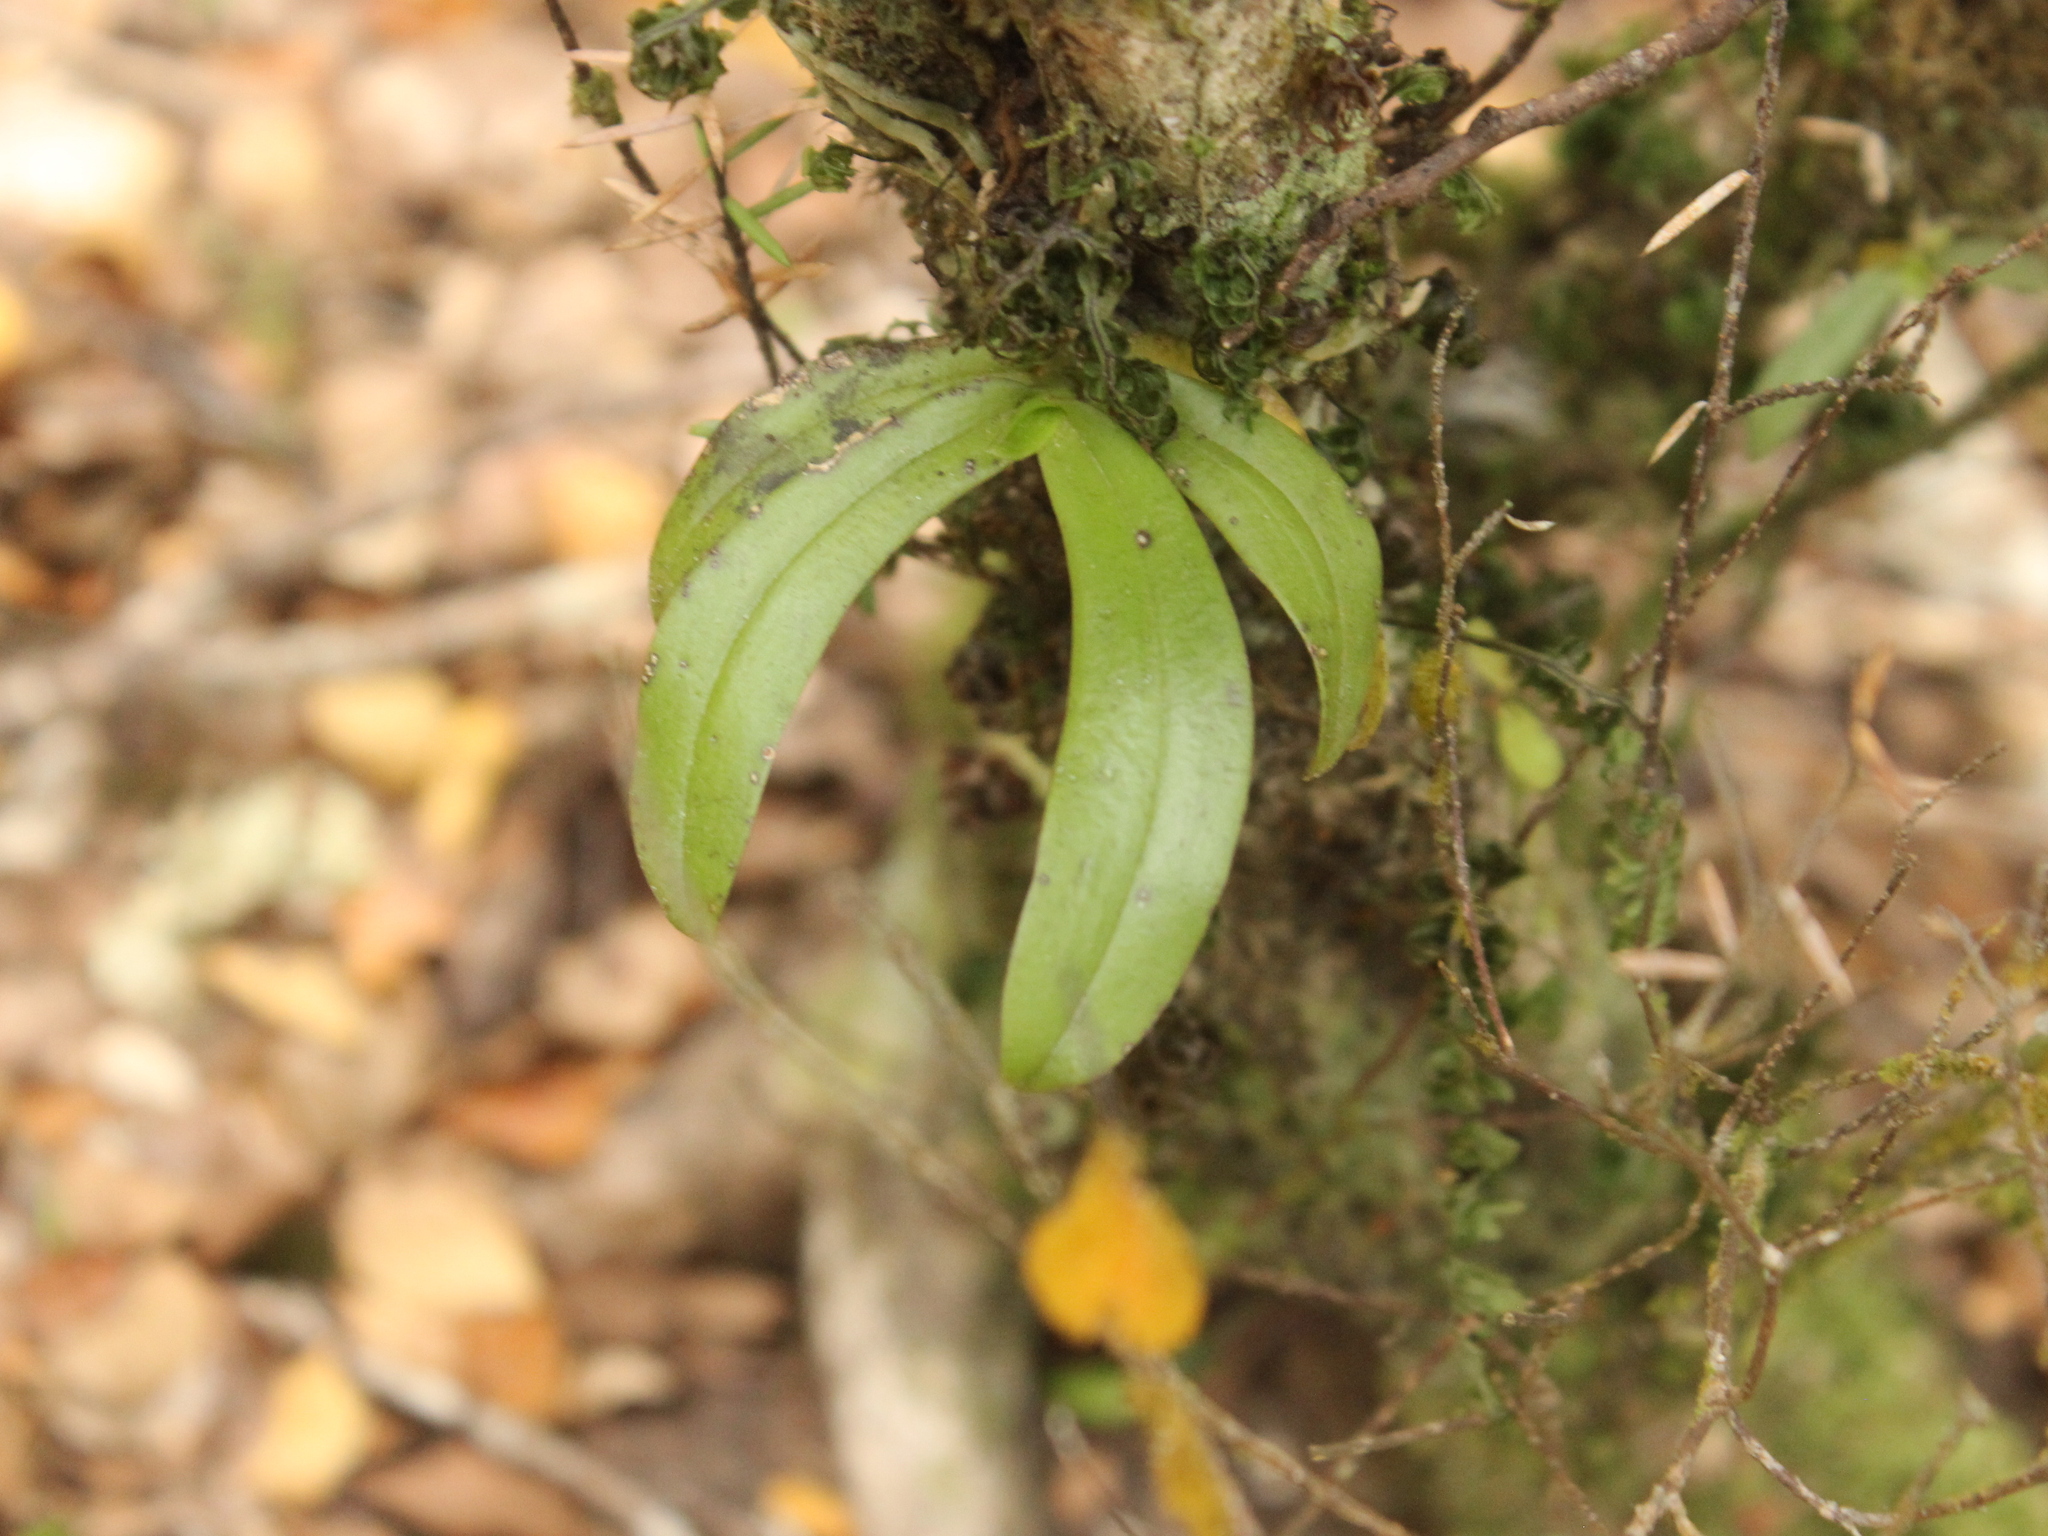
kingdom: Plantae
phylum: Tracheophyta
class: Liliopsida
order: Asparagales
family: Orchidaceae
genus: Drymoanthus
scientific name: Drymoanthus adversus
